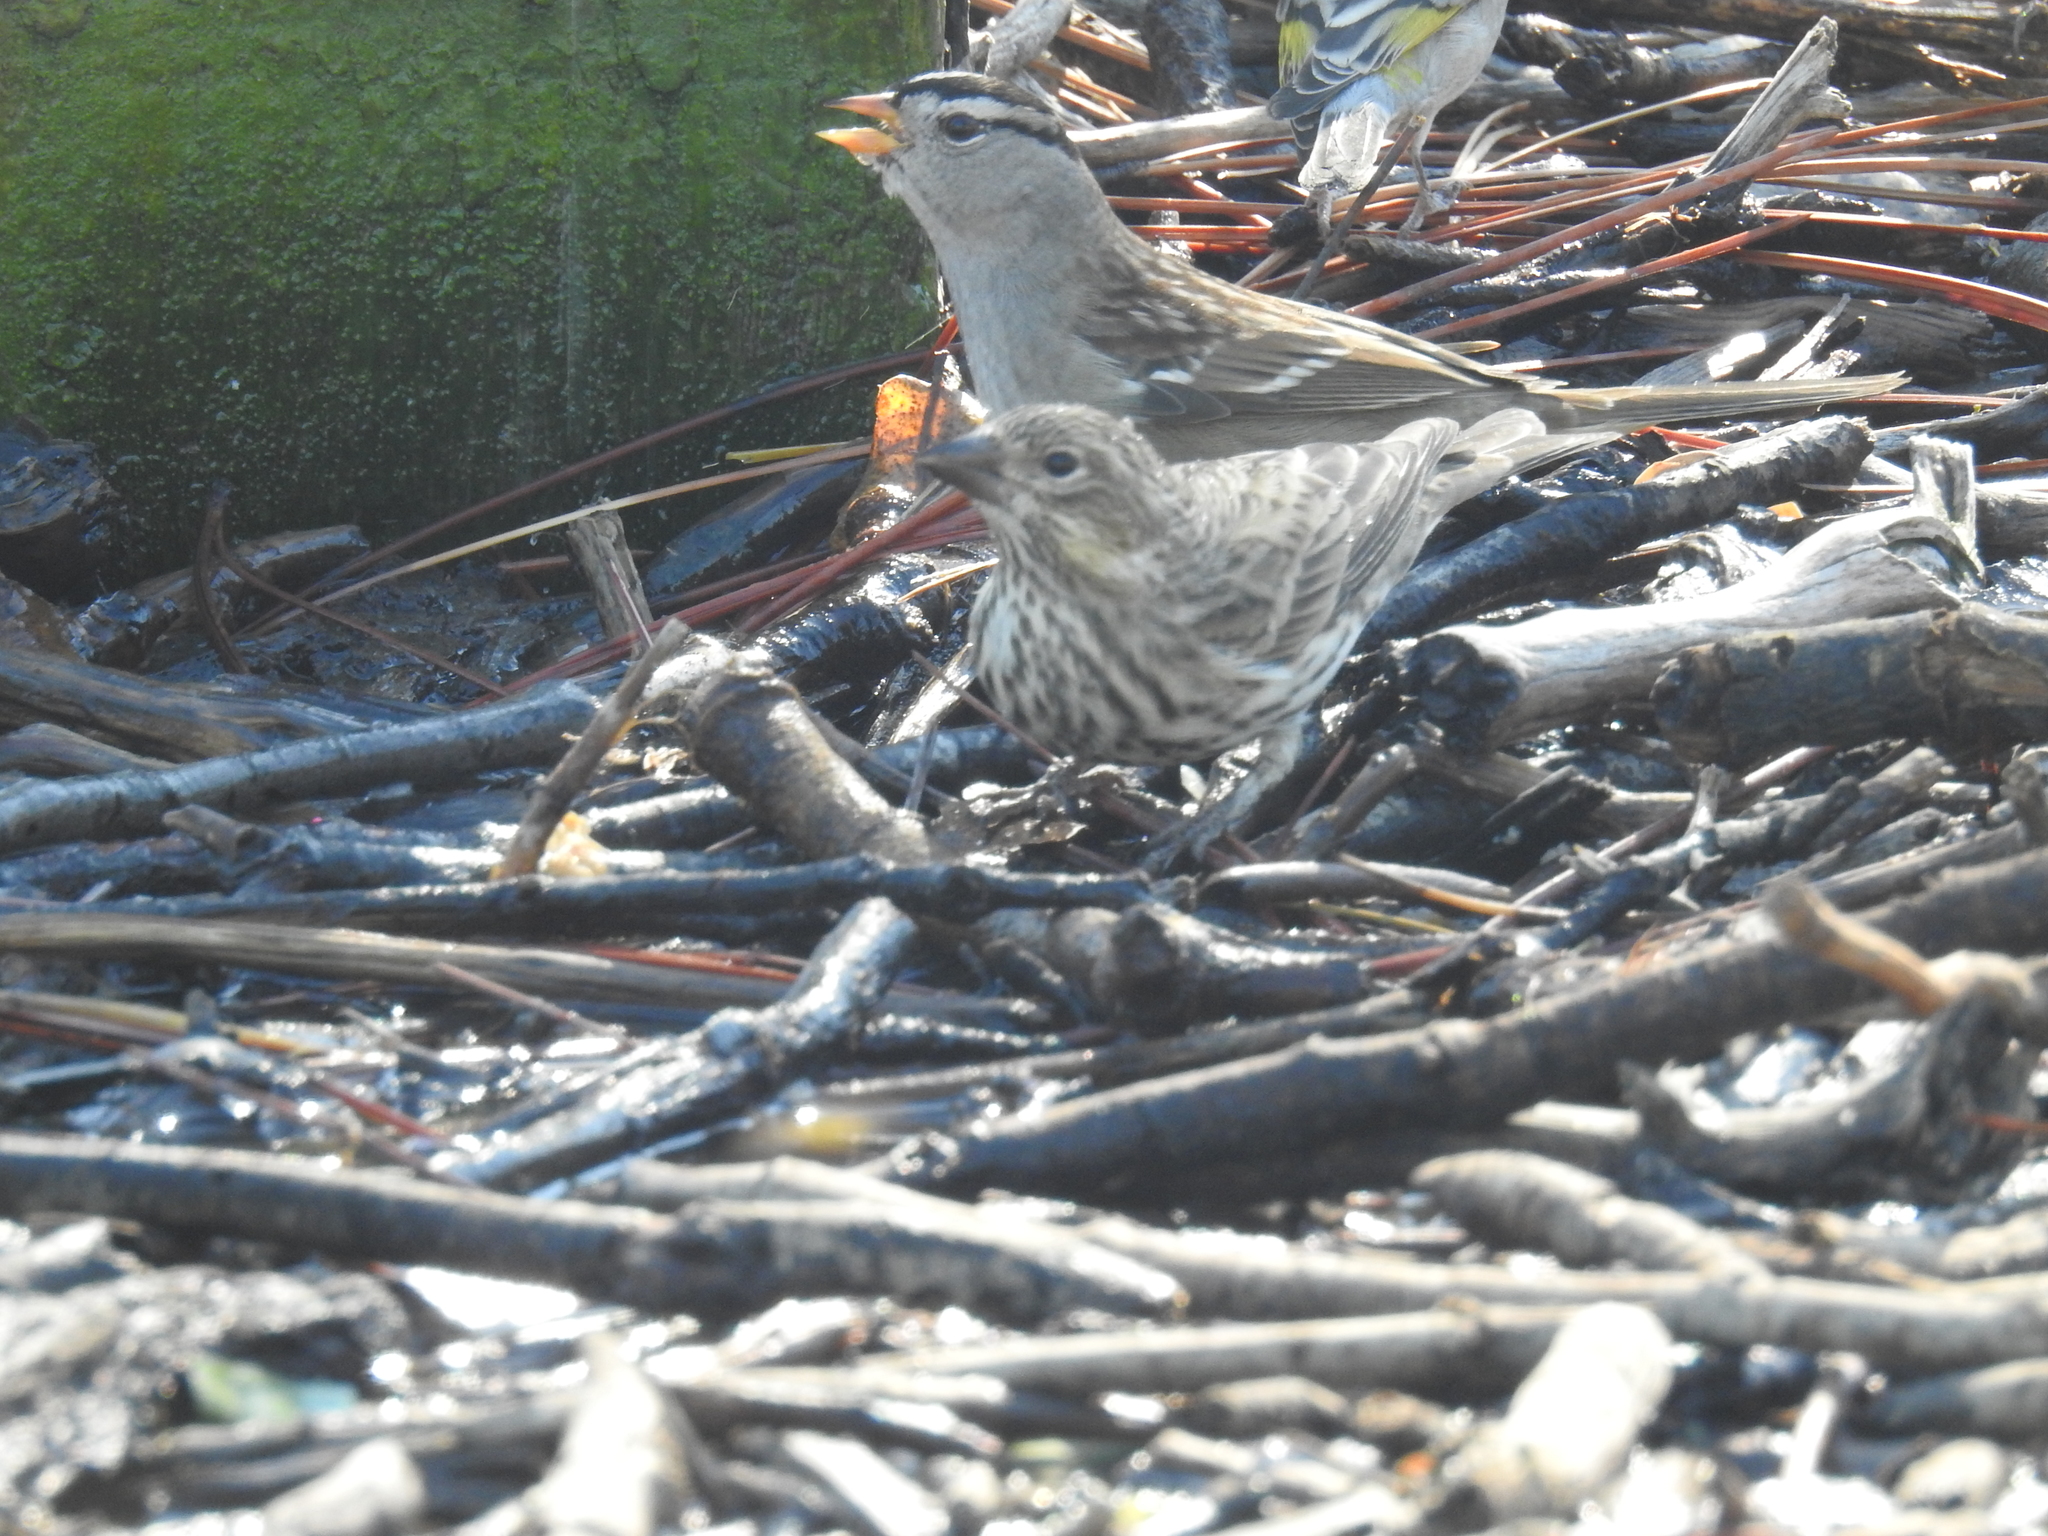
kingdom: Animalia
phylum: Chordata
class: Aves
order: Passeriformes
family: Passerellidae
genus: Zonotrichia
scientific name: Zonotrichia leucophrys
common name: White-crowned sparrow
